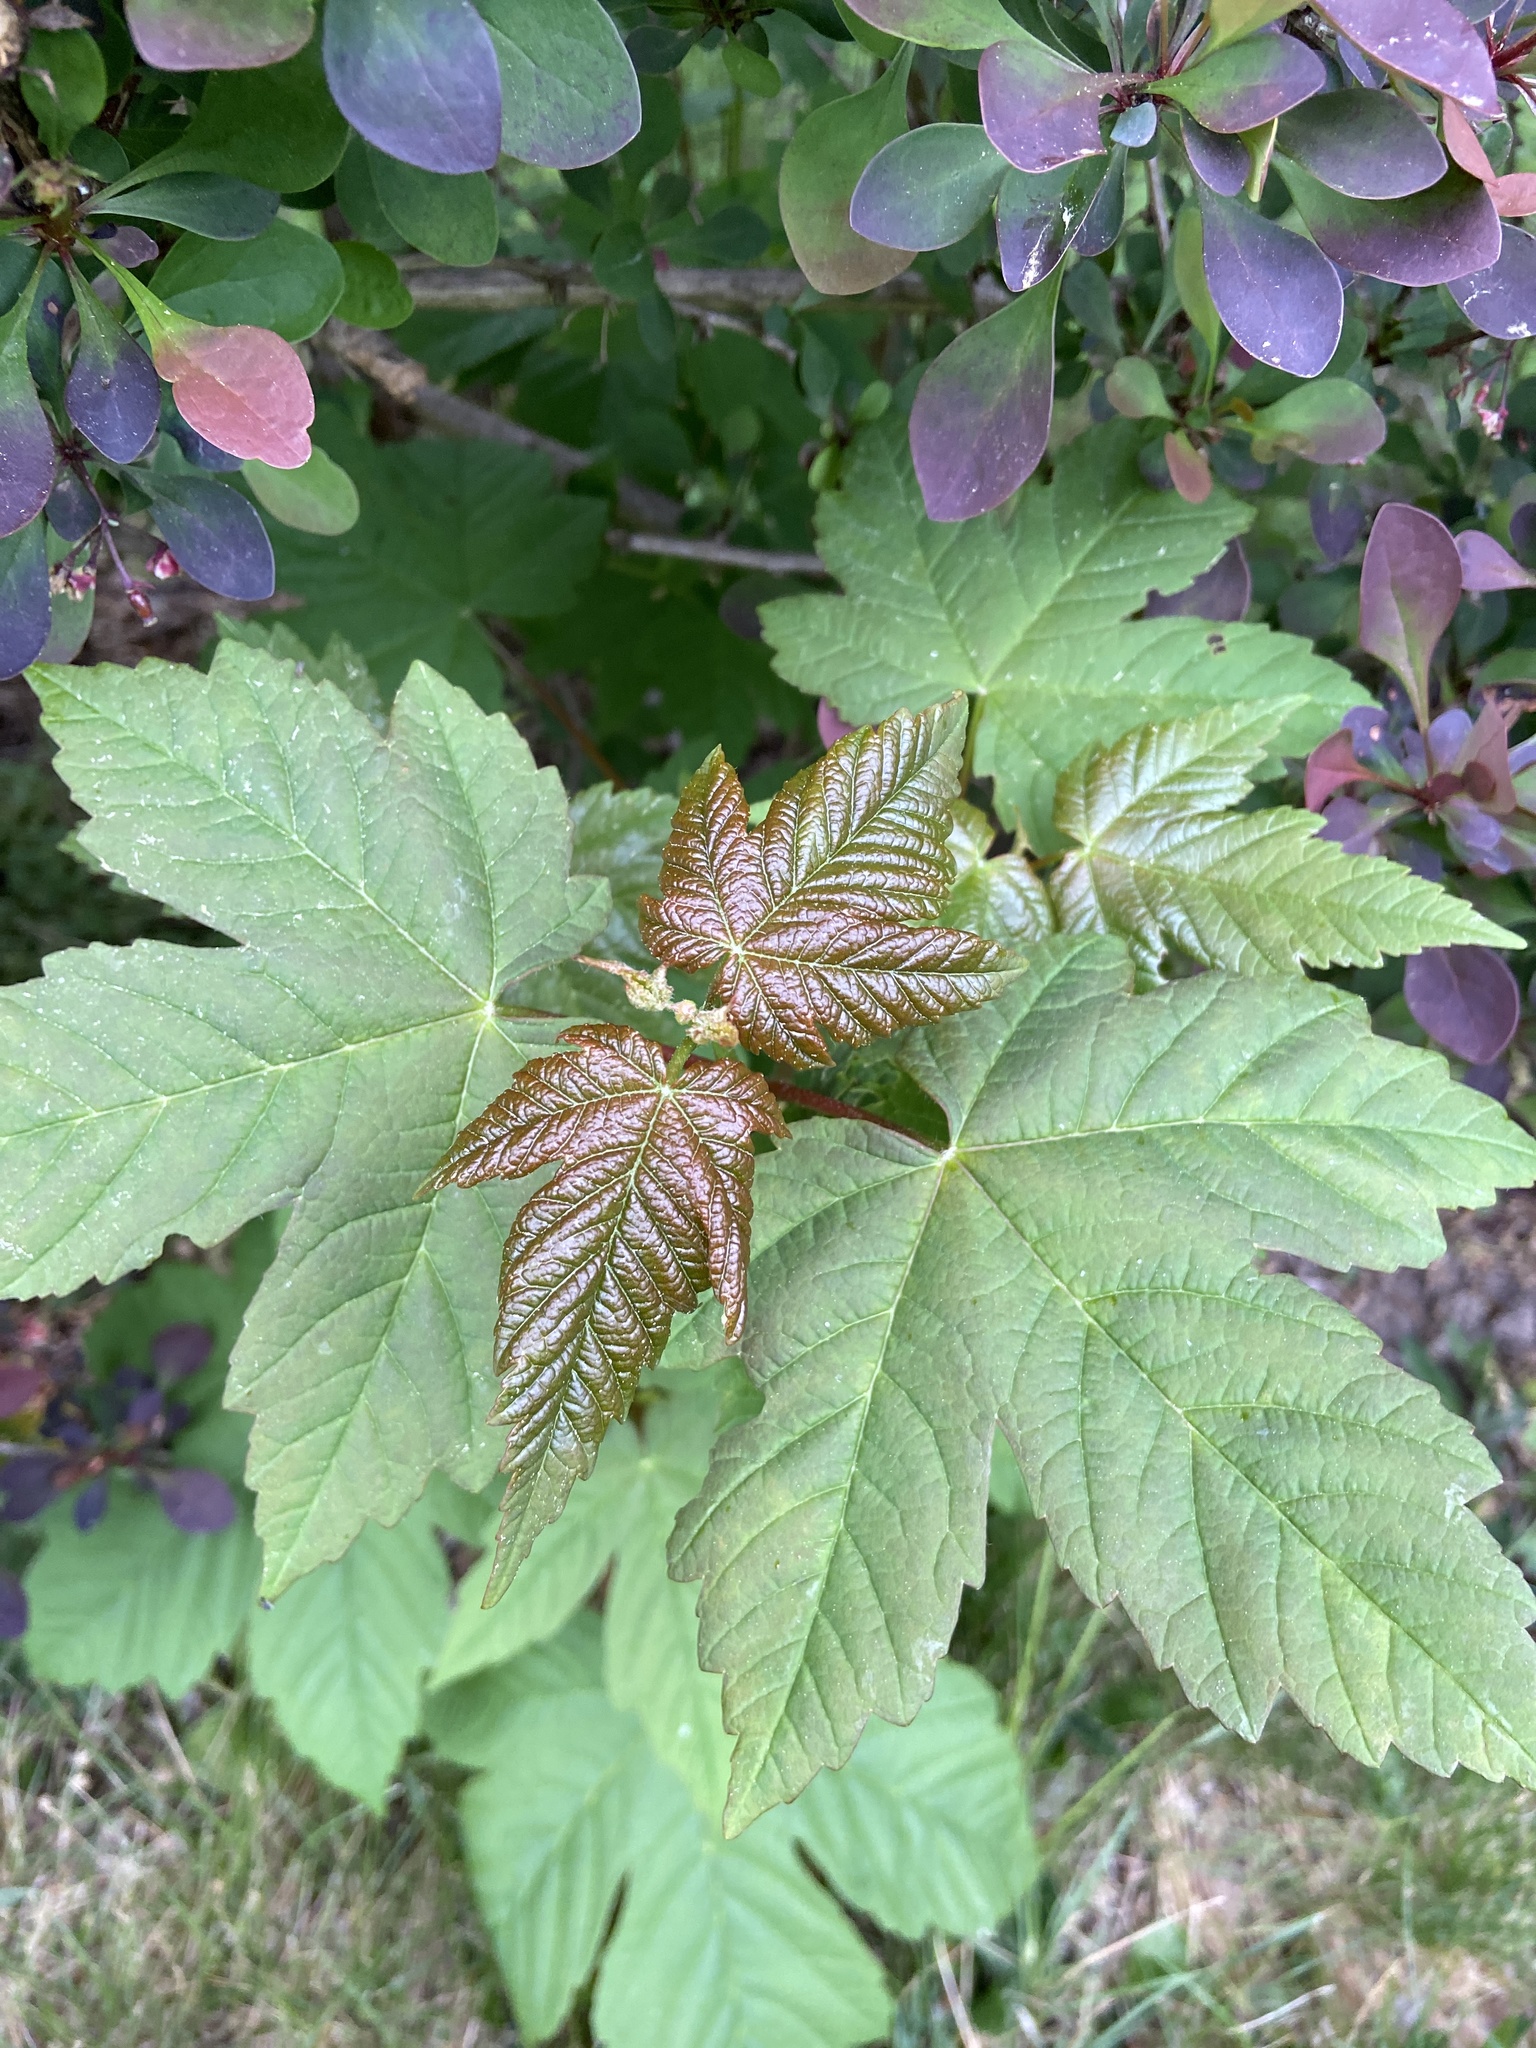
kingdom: Plantae
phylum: Tracheophyta
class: Magnoliopsida
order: Sapindales
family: Sapindaceae
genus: Acer
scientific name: Acer pseudoplatanus
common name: Sycamore
